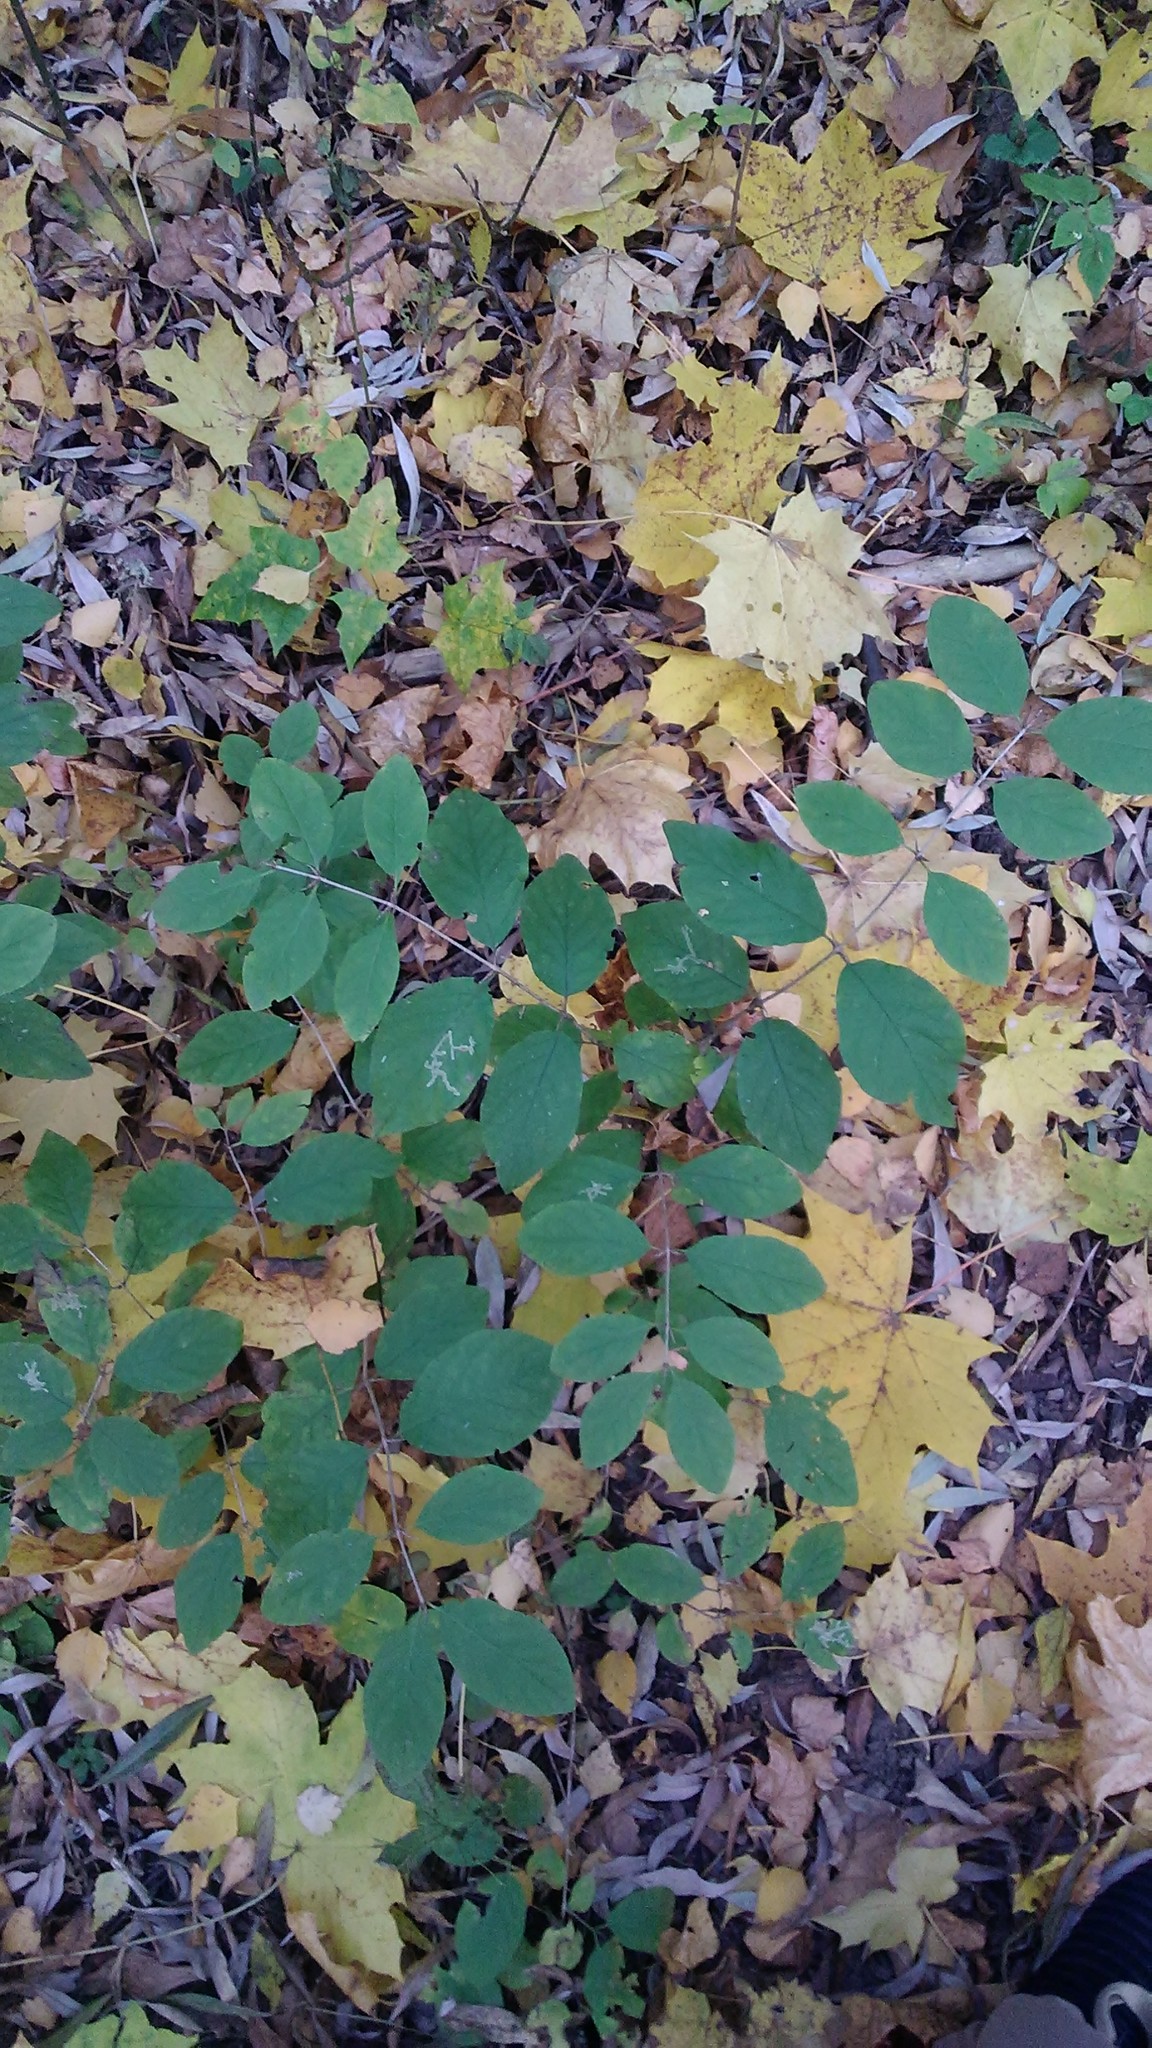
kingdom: Plantae
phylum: Tracheophyta
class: Magnoliopsida
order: Dipsacales
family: Caprifoliaceae
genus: Lonicera
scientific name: Lonicera xylosteum
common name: Fly honeysuckle
